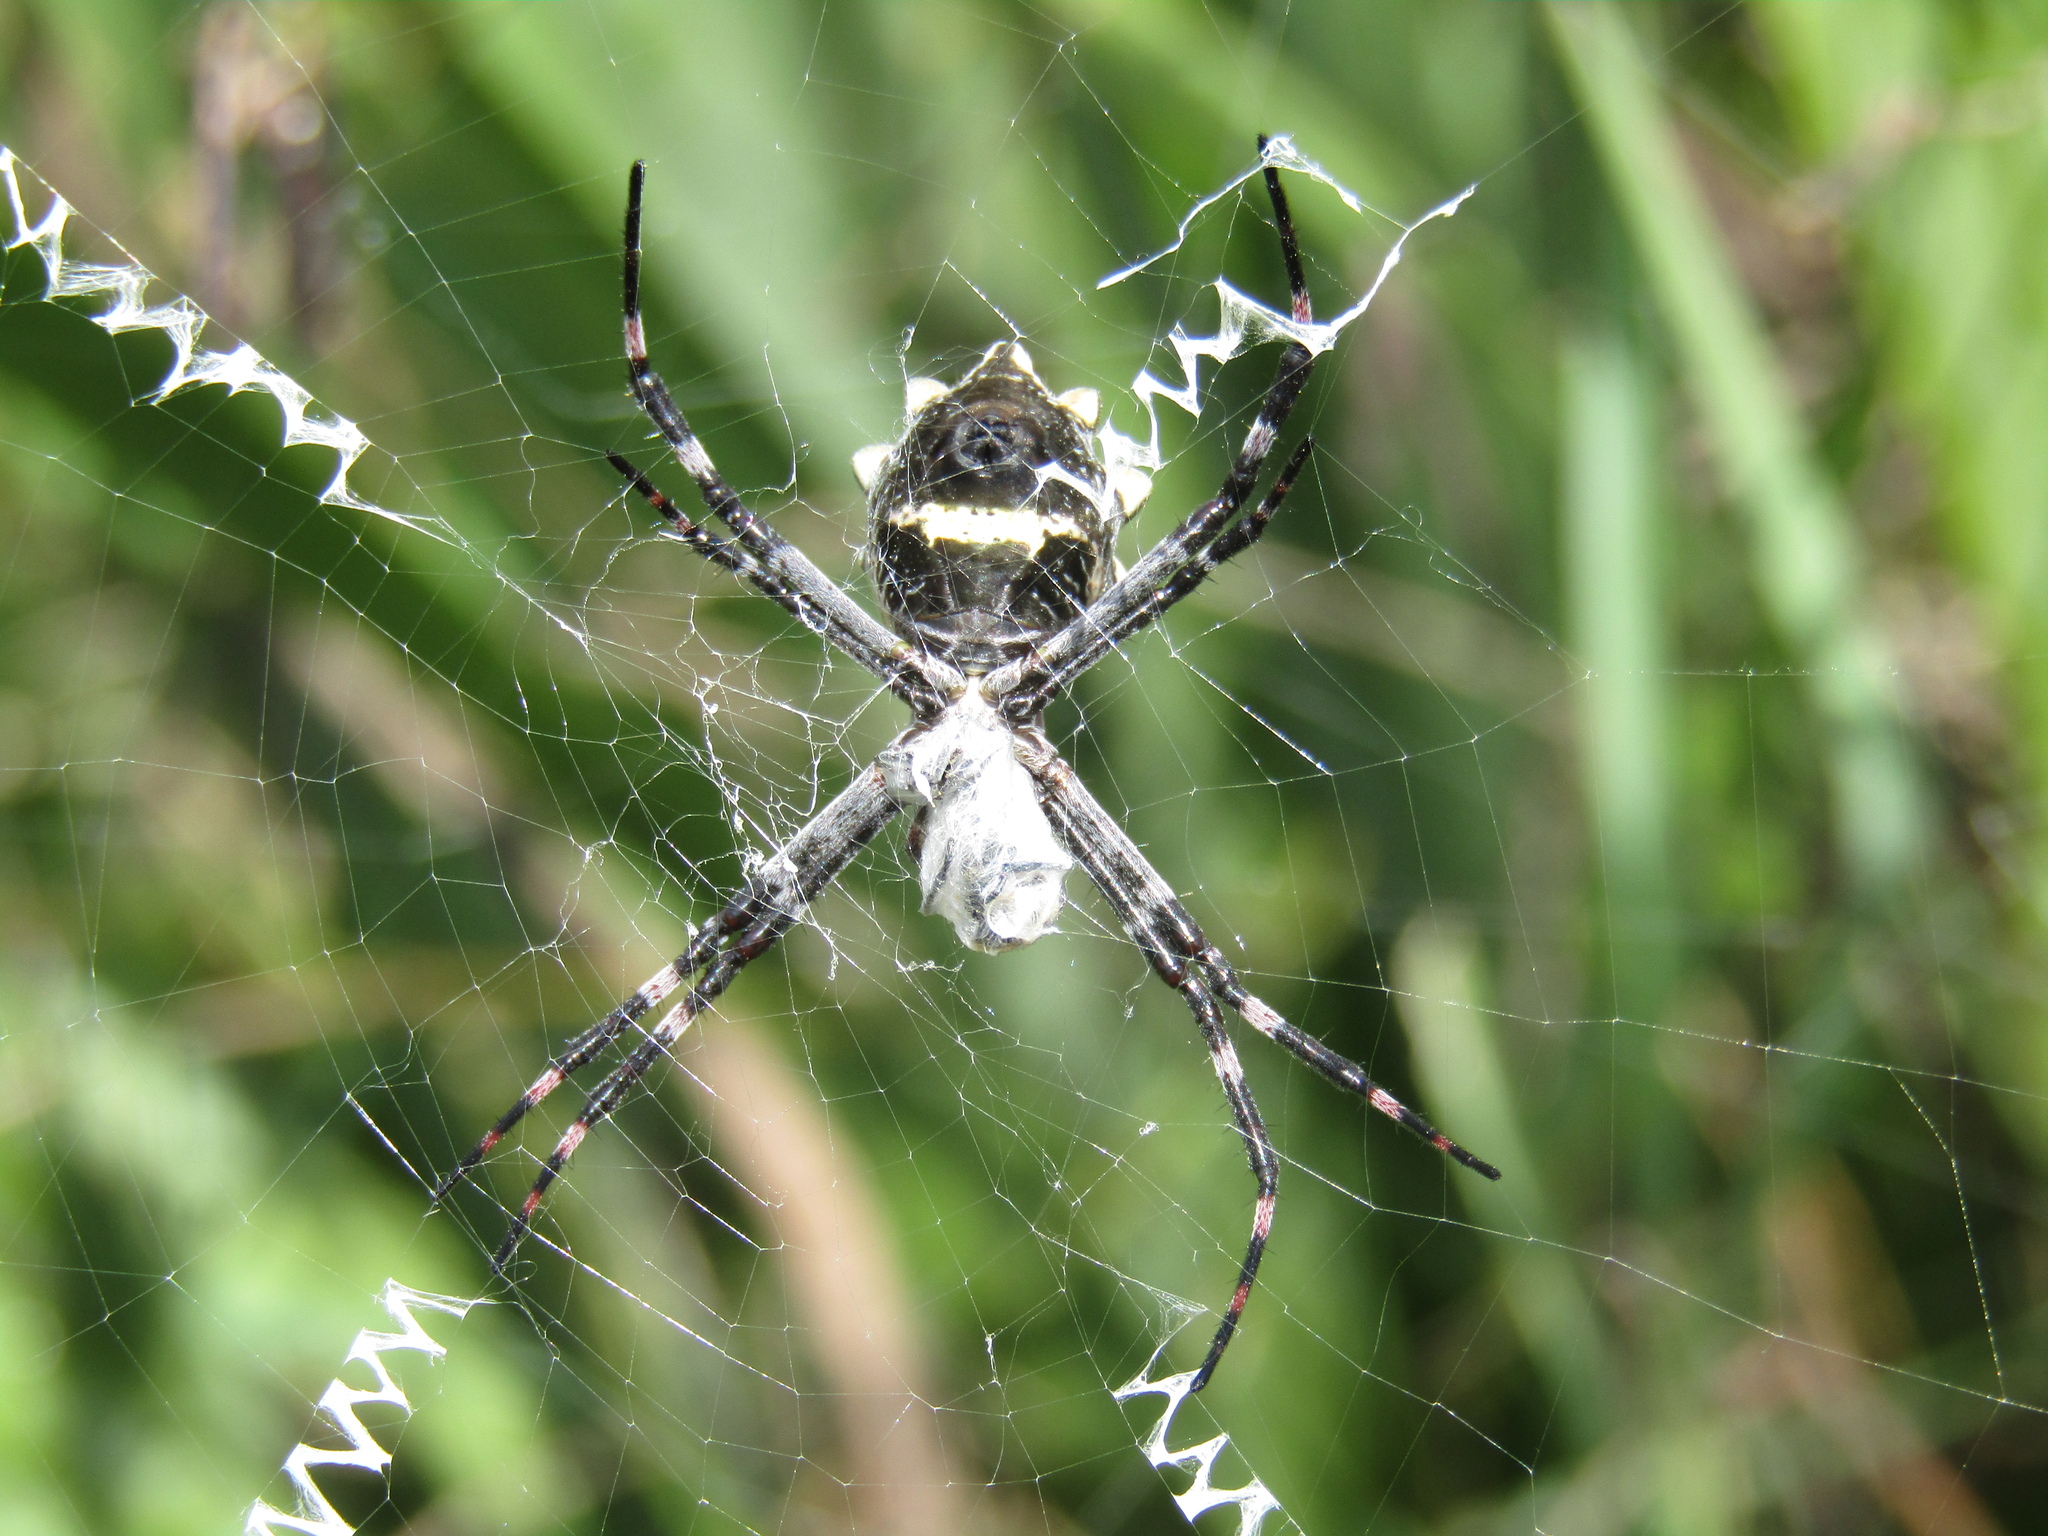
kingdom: Animalia
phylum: Arthropoda
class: Arachnida
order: Araneae
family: Araneidae
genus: Argiope
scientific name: Argiope argentata
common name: Orb weavers
